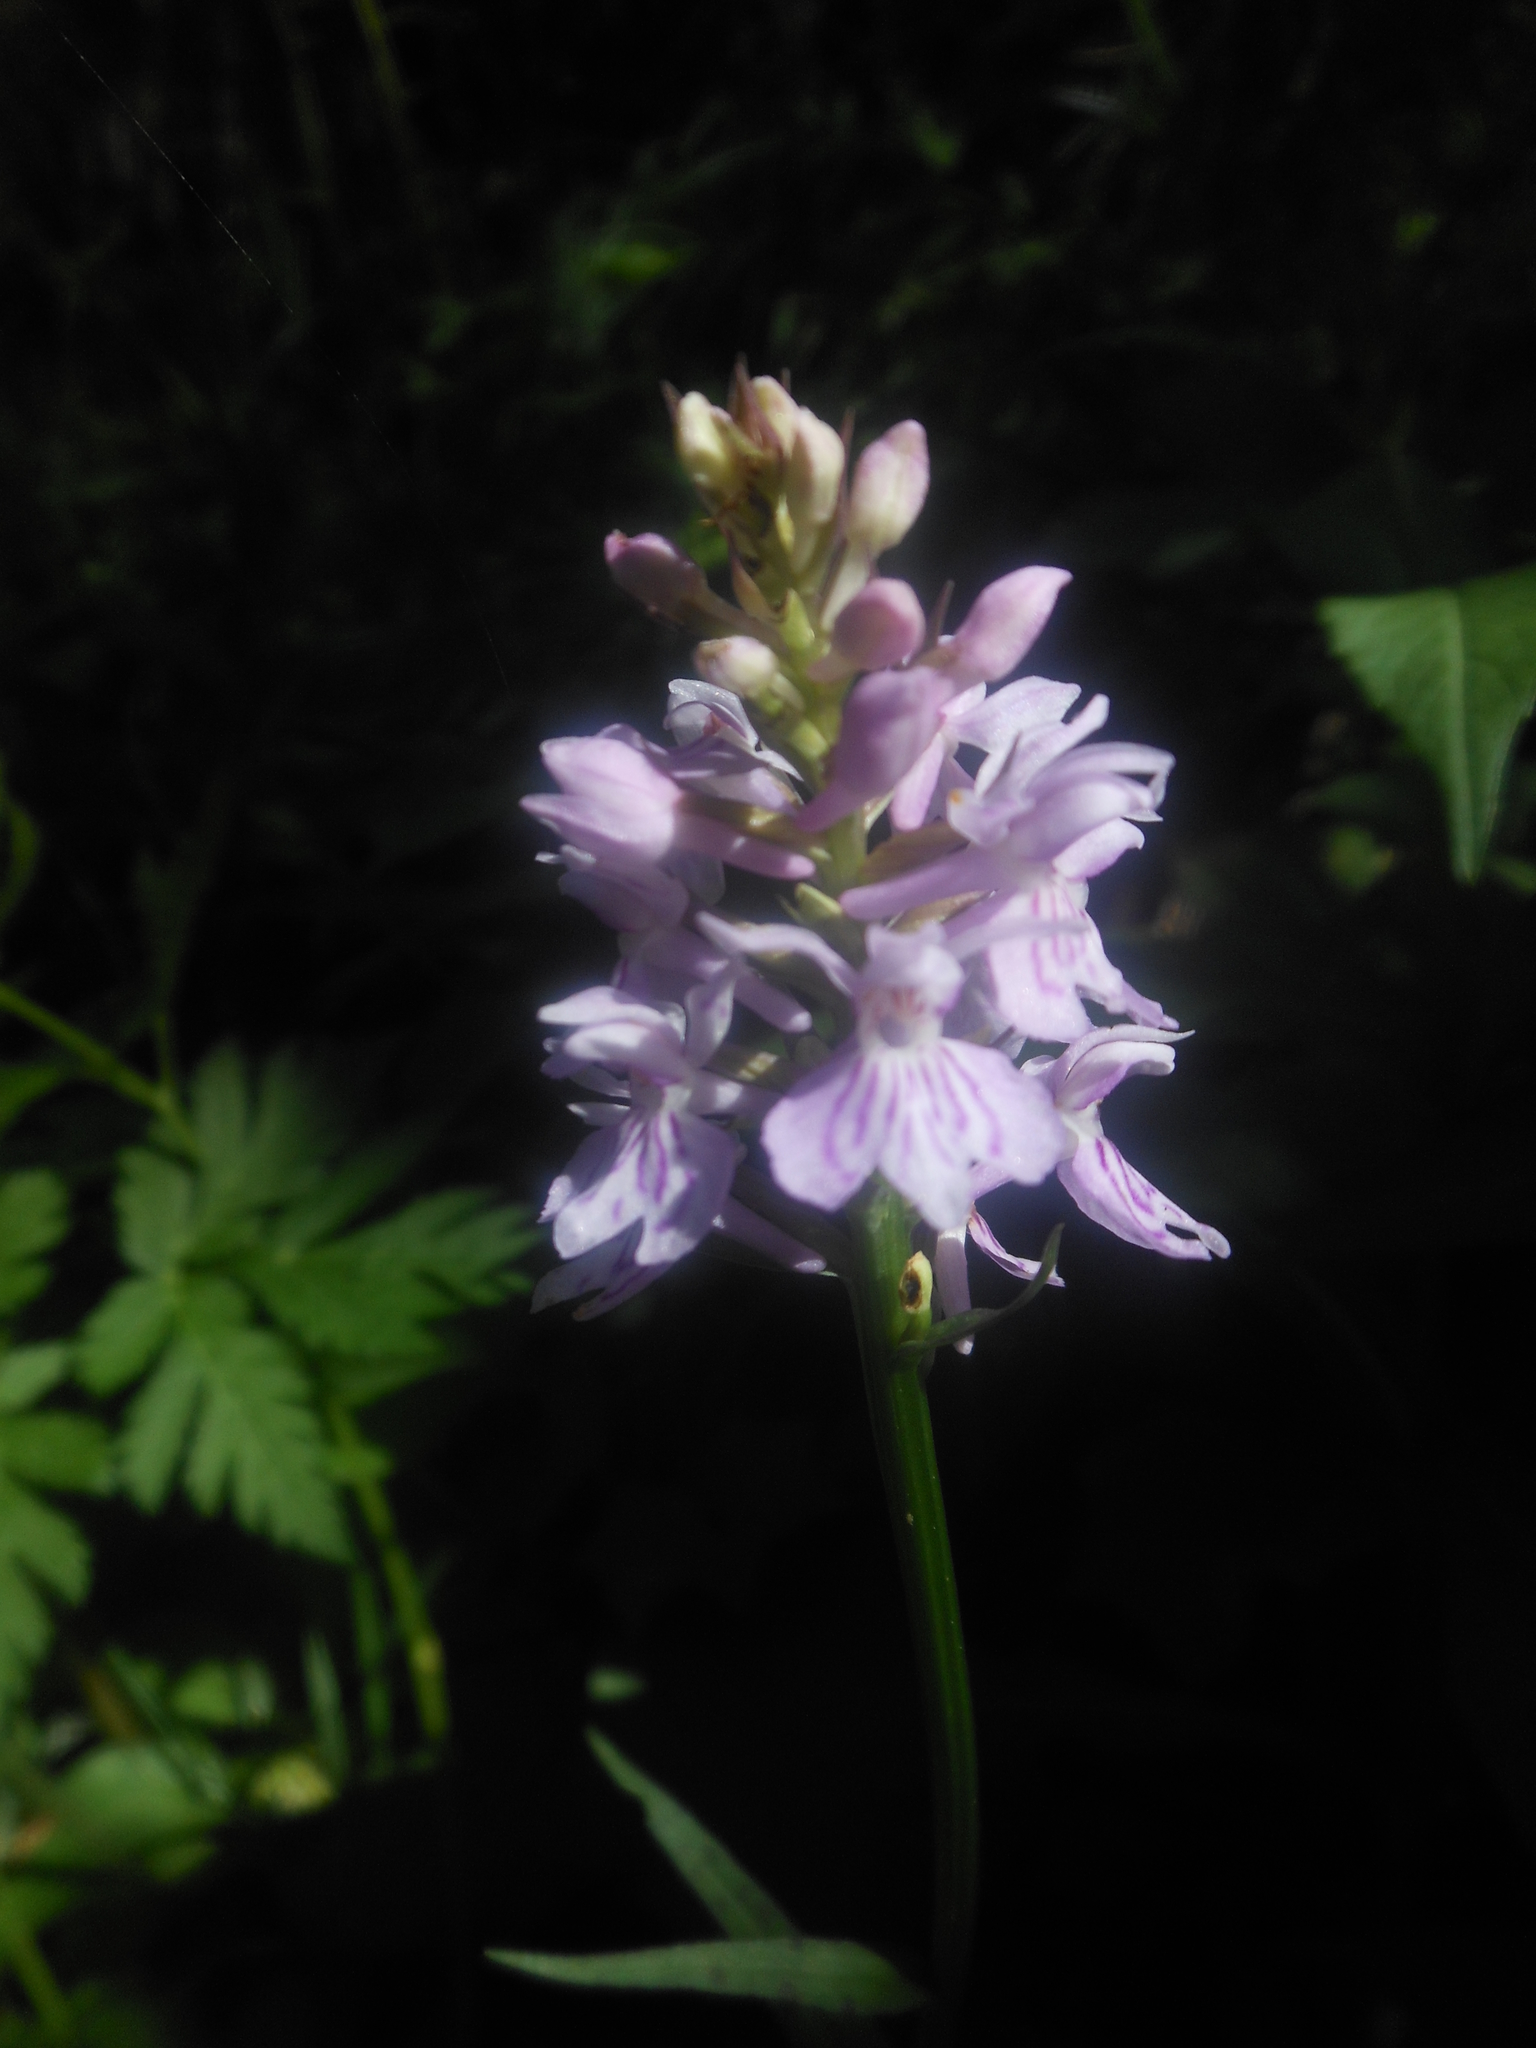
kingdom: Plantae
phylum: Tracheophyta
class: Liliopsida
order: Asparagales
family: Orchidaceae
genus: Dactylorhiza
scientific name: Dactylorhiza maculata
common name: Heath spotted-orchid
